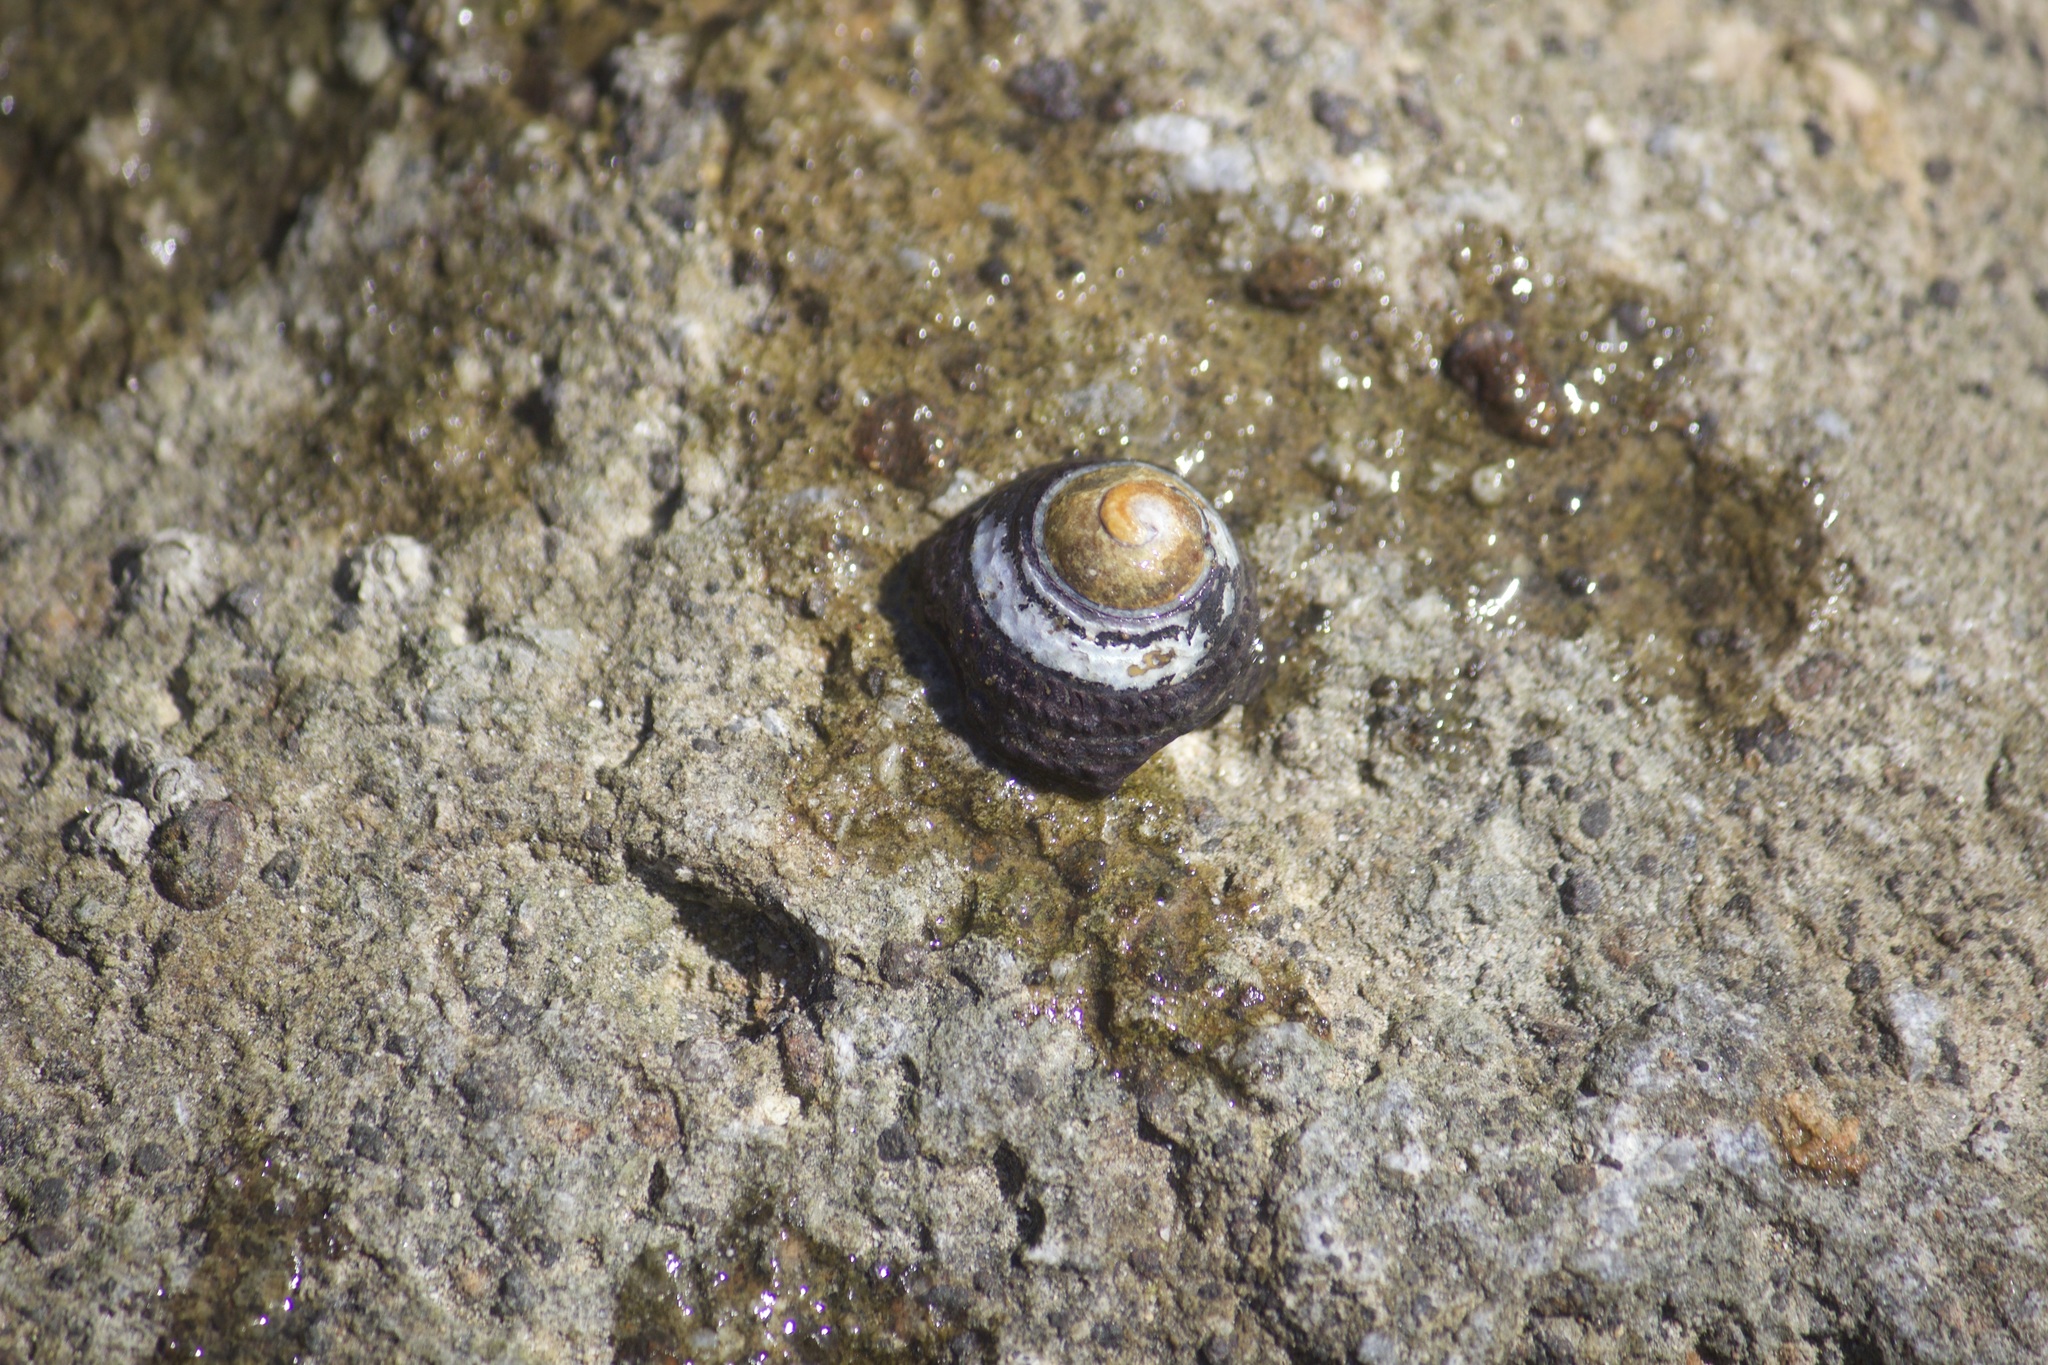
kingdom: Animalia
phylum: Mollusca
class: Gastropoda
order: Trochida
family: Tegulidae
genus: Tegula
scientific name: Tegula funebralis
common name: Black tegula
